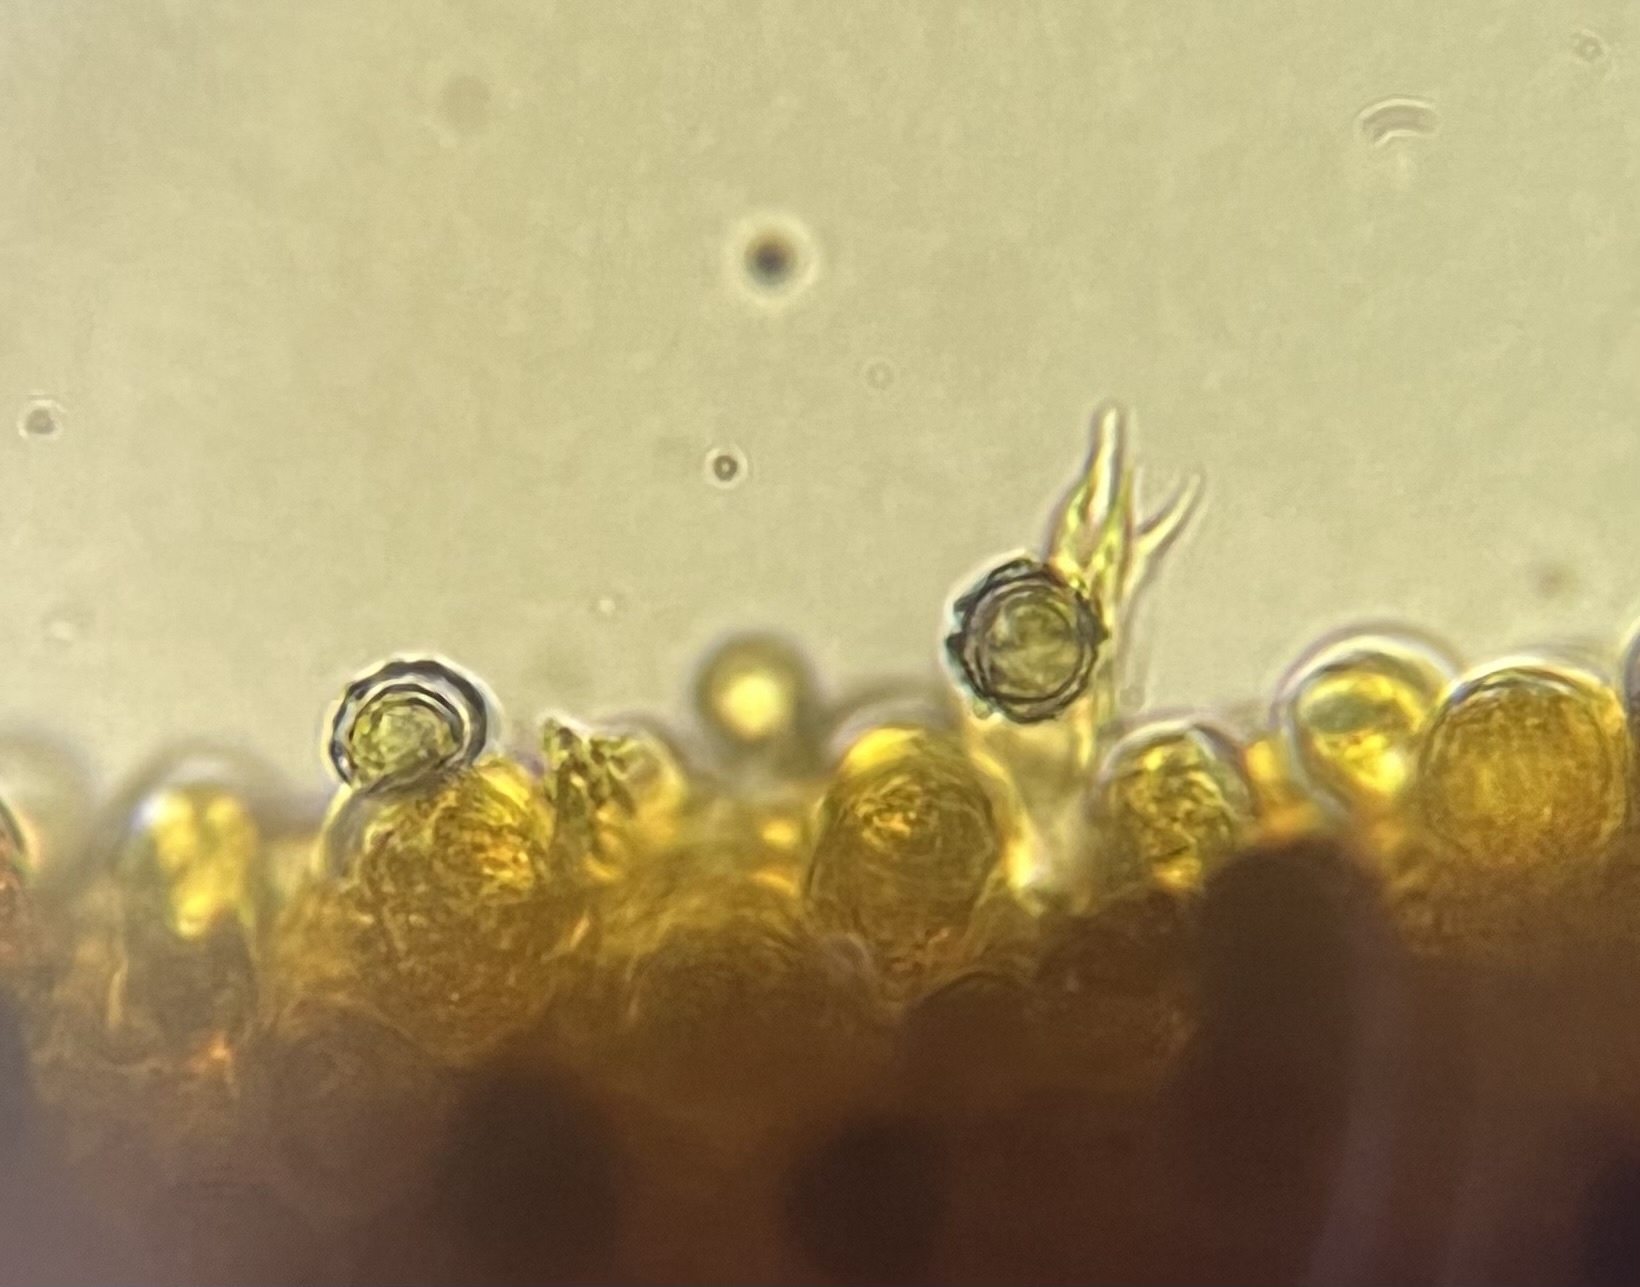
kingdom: Fungi
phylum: Basidiomycota
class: Agaricomycetes
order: Russulales
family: Russulaceae
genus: Russula
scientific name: Russula ventricosipes
